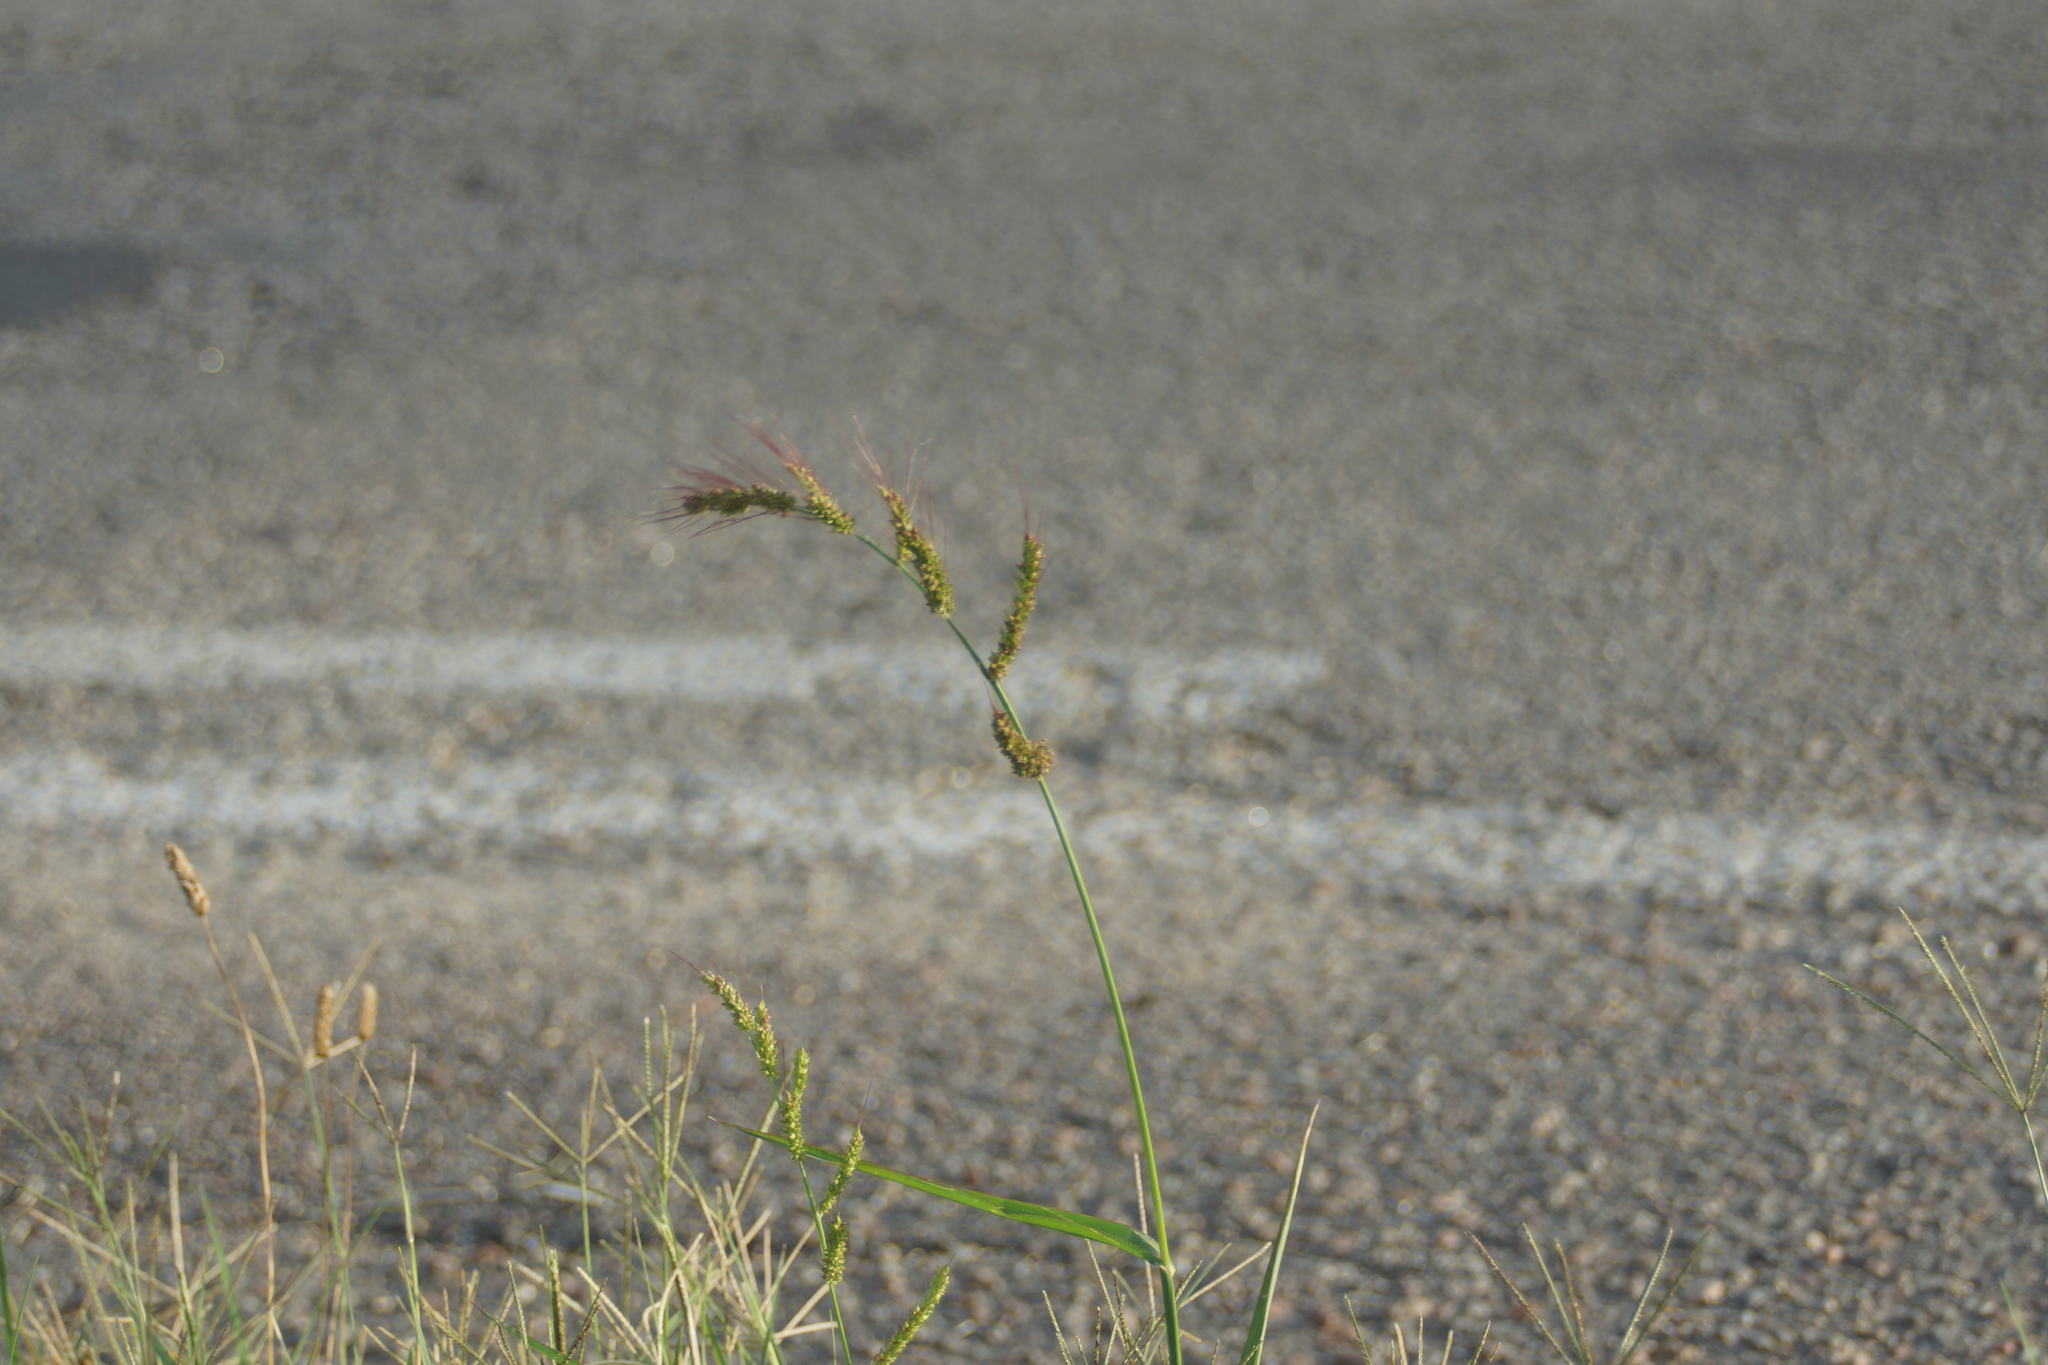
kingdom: Plantae
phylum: Tracheophyta
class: Liliopsida
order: Poales
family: Poaceae
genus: Echinochloa
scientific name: Echinochloa crus-galli
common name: Cockspur
